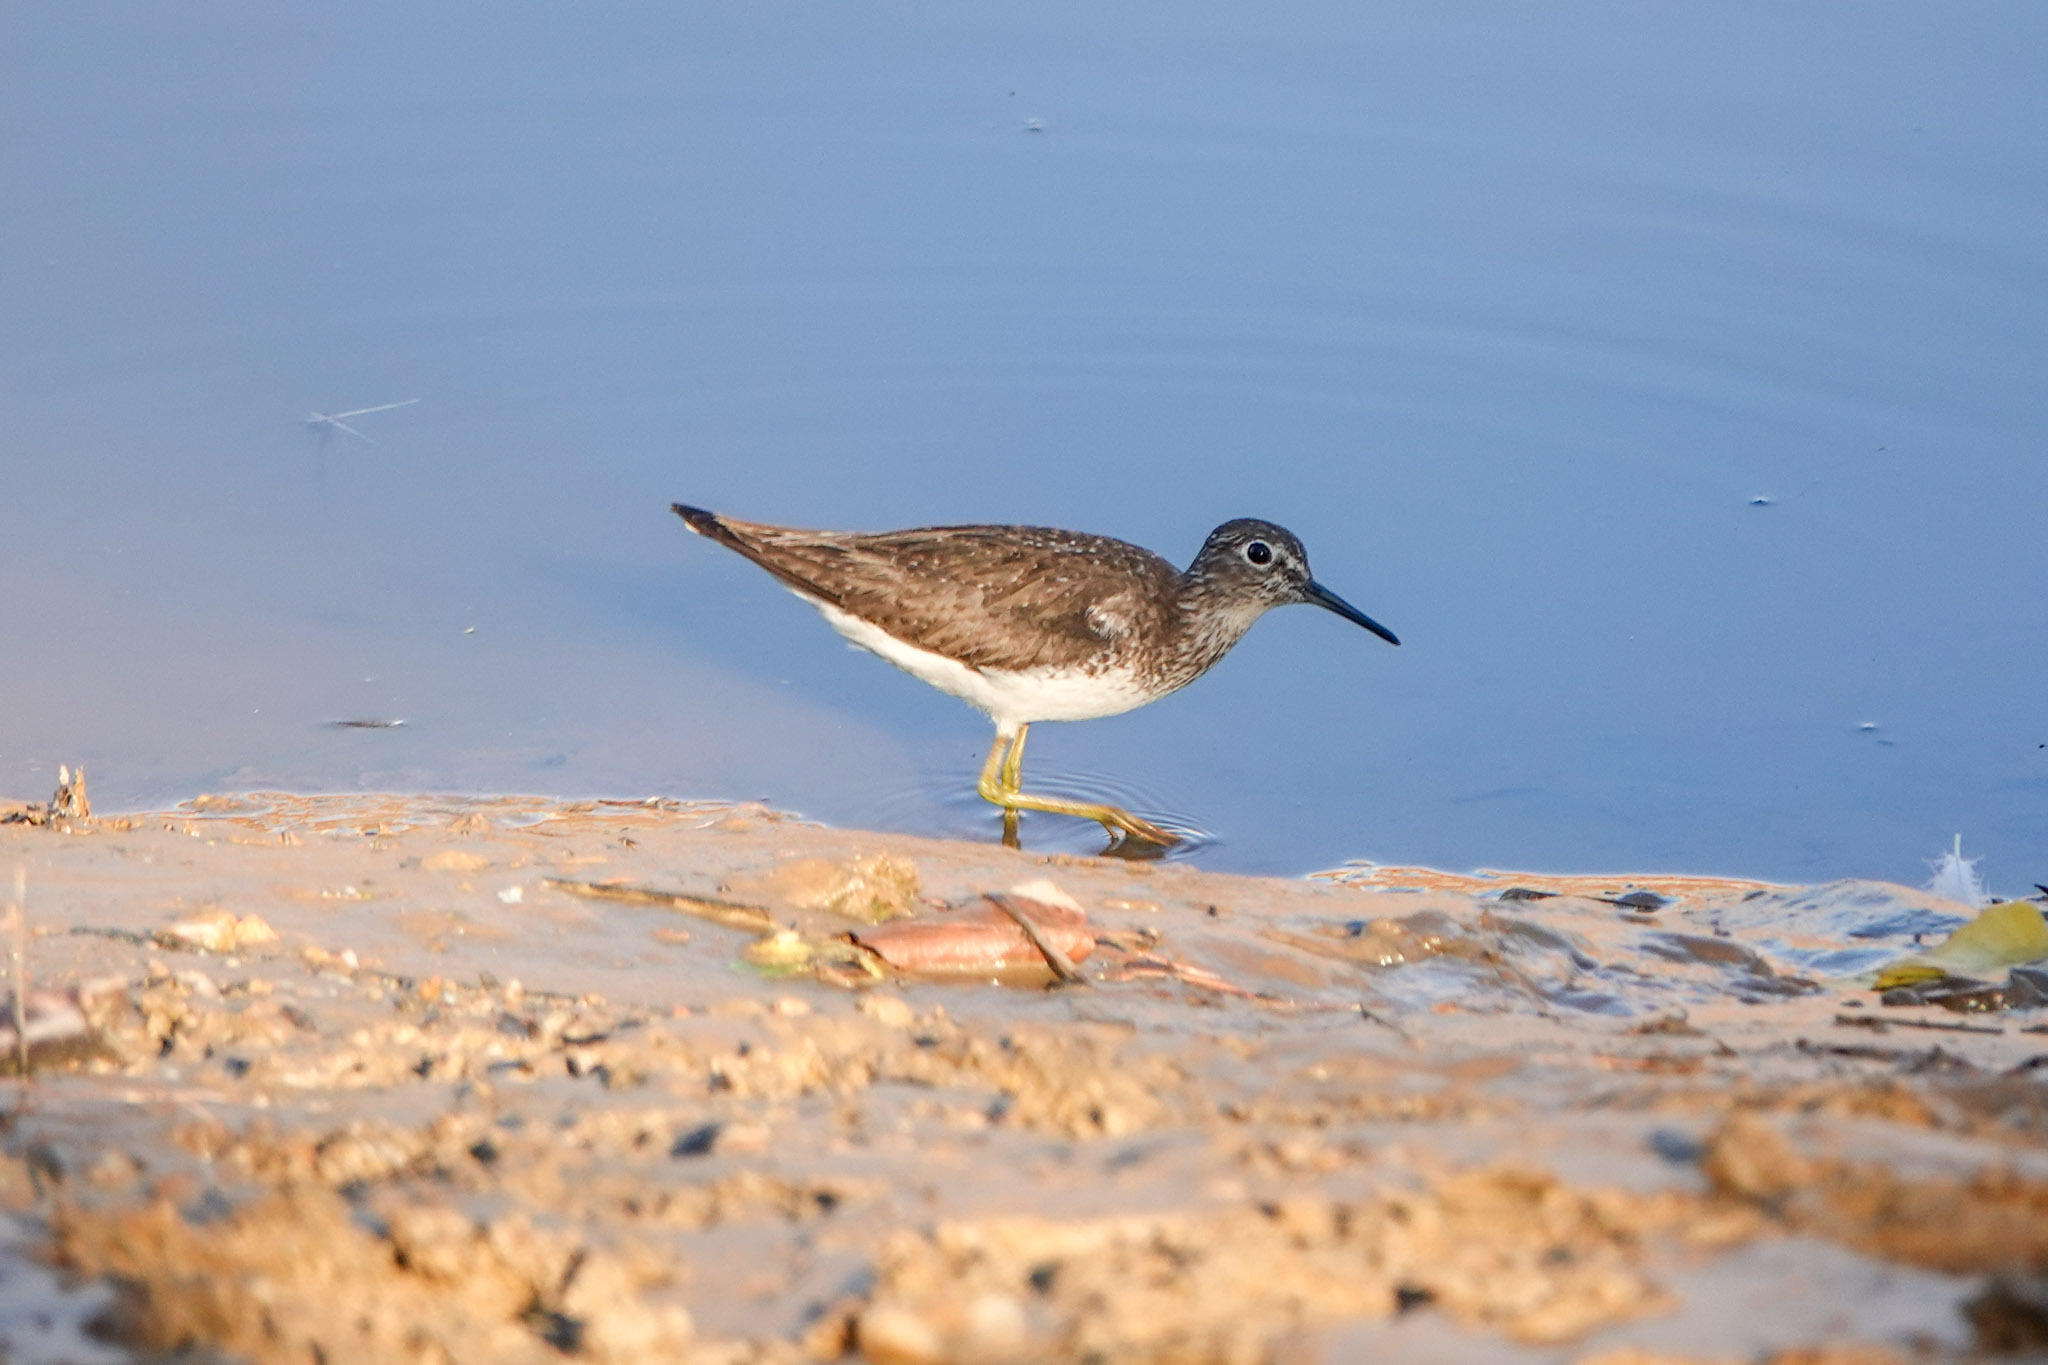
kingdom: Animalia
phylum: Chordata
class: Aves
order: Charadriiformes
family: Scolopacidae
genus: Tringa
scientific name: Tringa solitaria
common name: Solitary sandpiper
